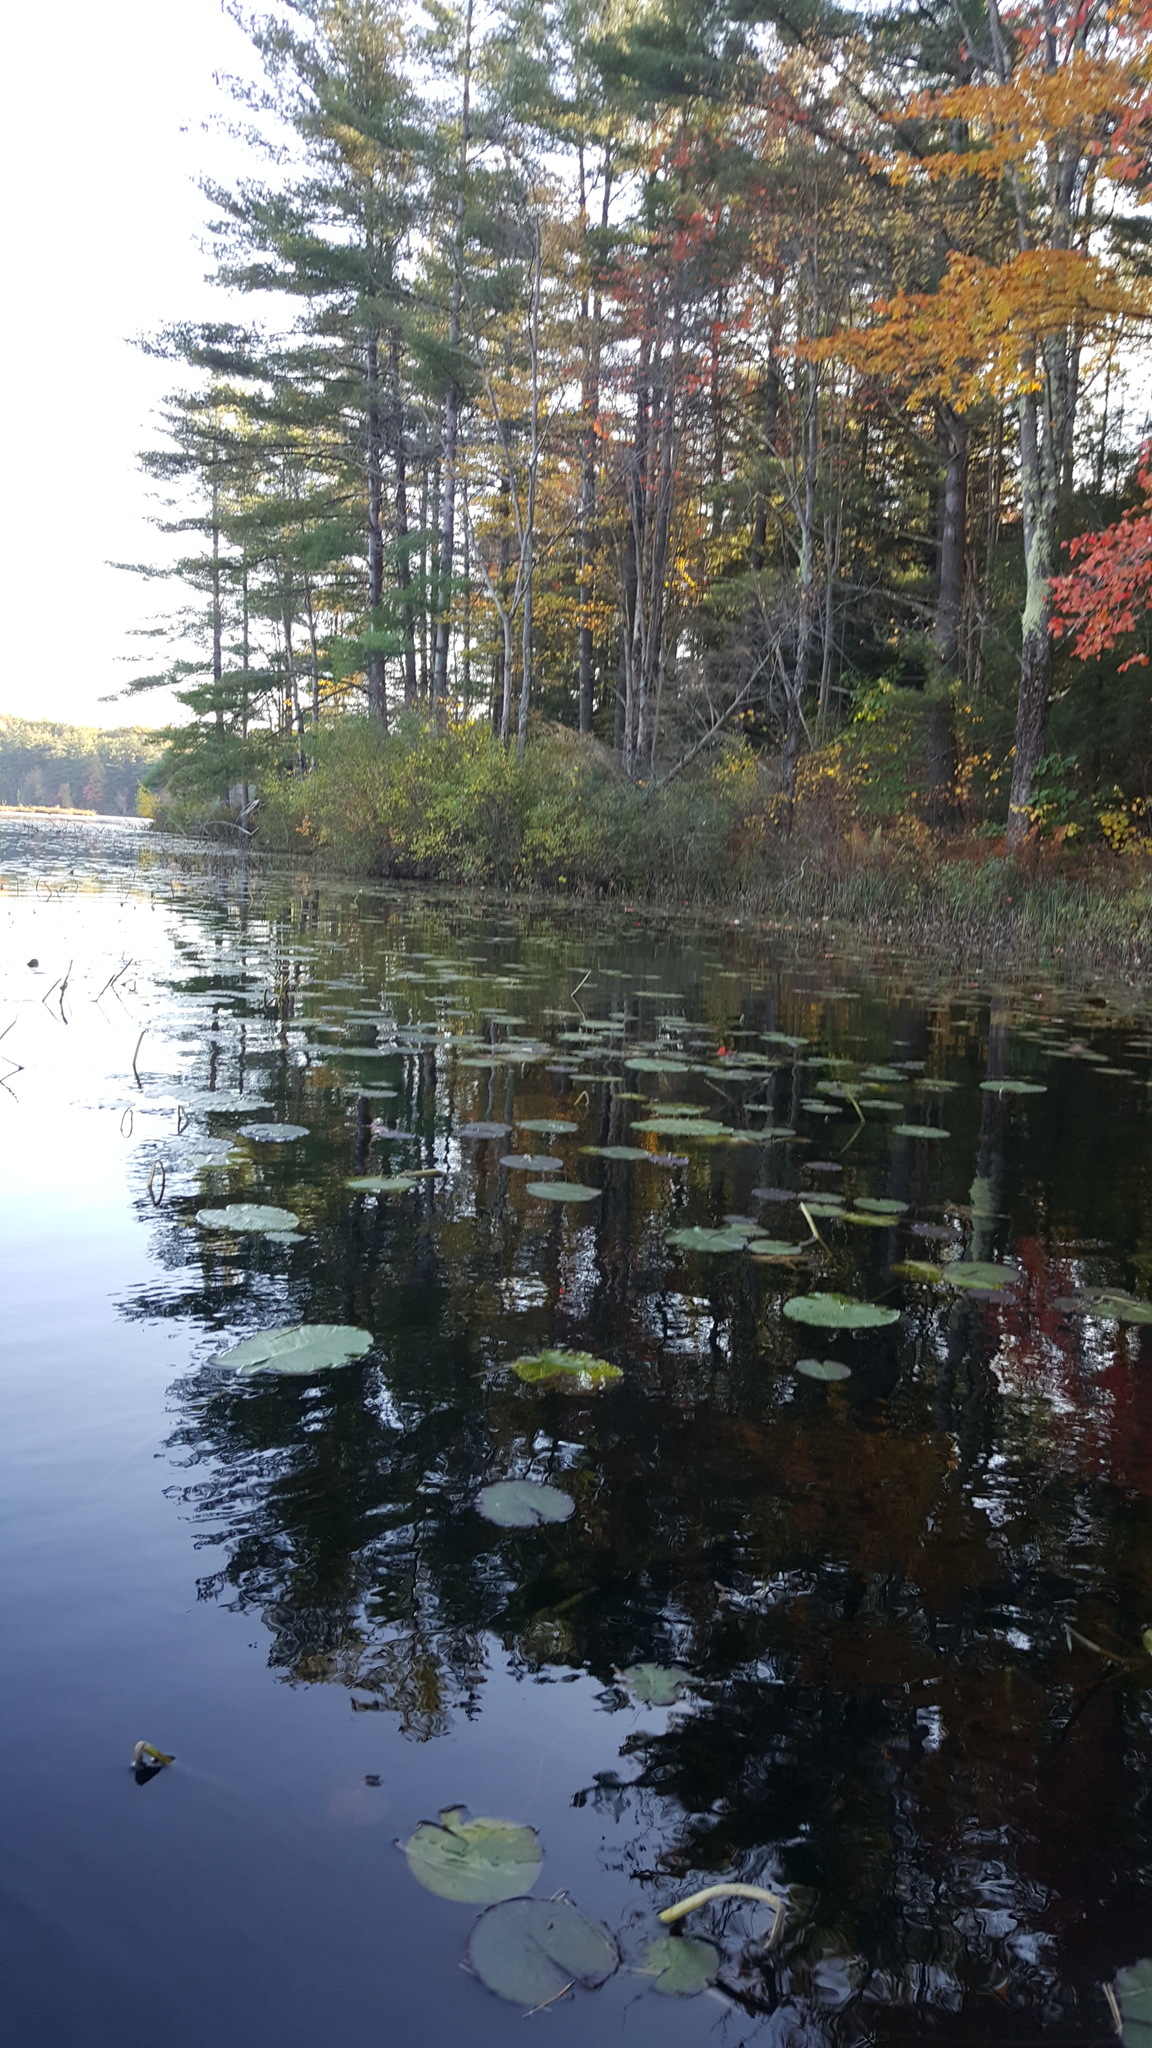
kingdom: Plantae
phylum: Tracheophyta
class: Pinopsida
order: Pinales
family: Pinaceae
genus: Pinus
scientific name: Pinus strobus
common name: Weymouth pine
